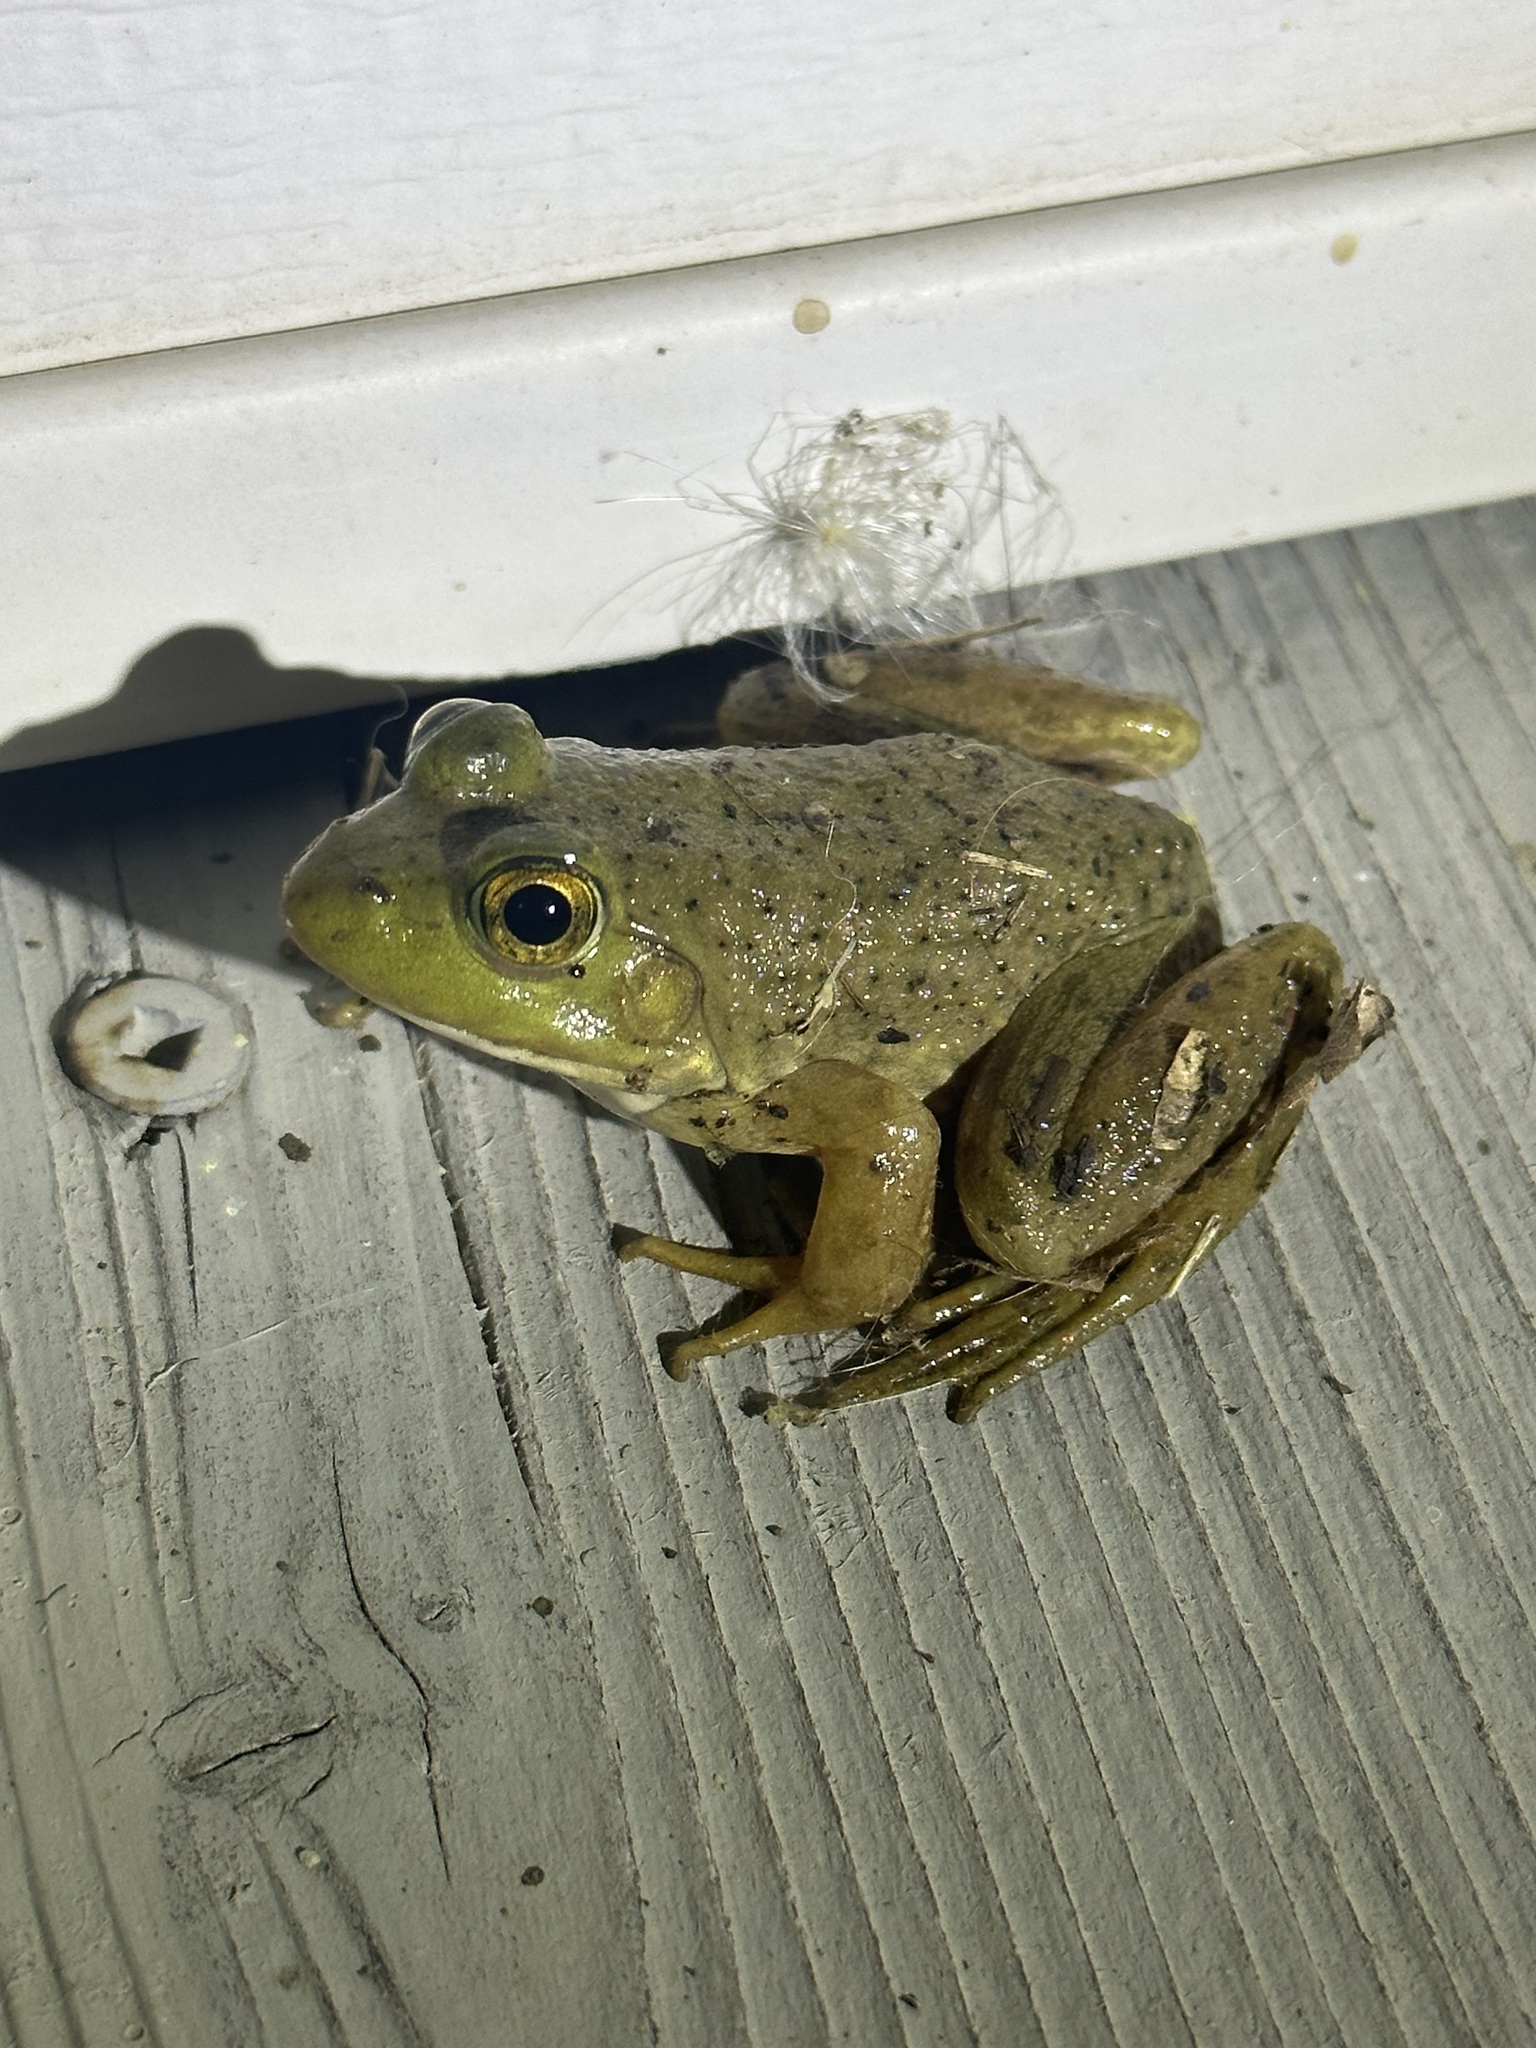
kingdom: Animalia
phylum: Chordata
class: Amphibia
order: Anura
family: Ranidae
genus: Lithobates
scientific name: Lithobates catesbeianus
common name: American bullfrog
